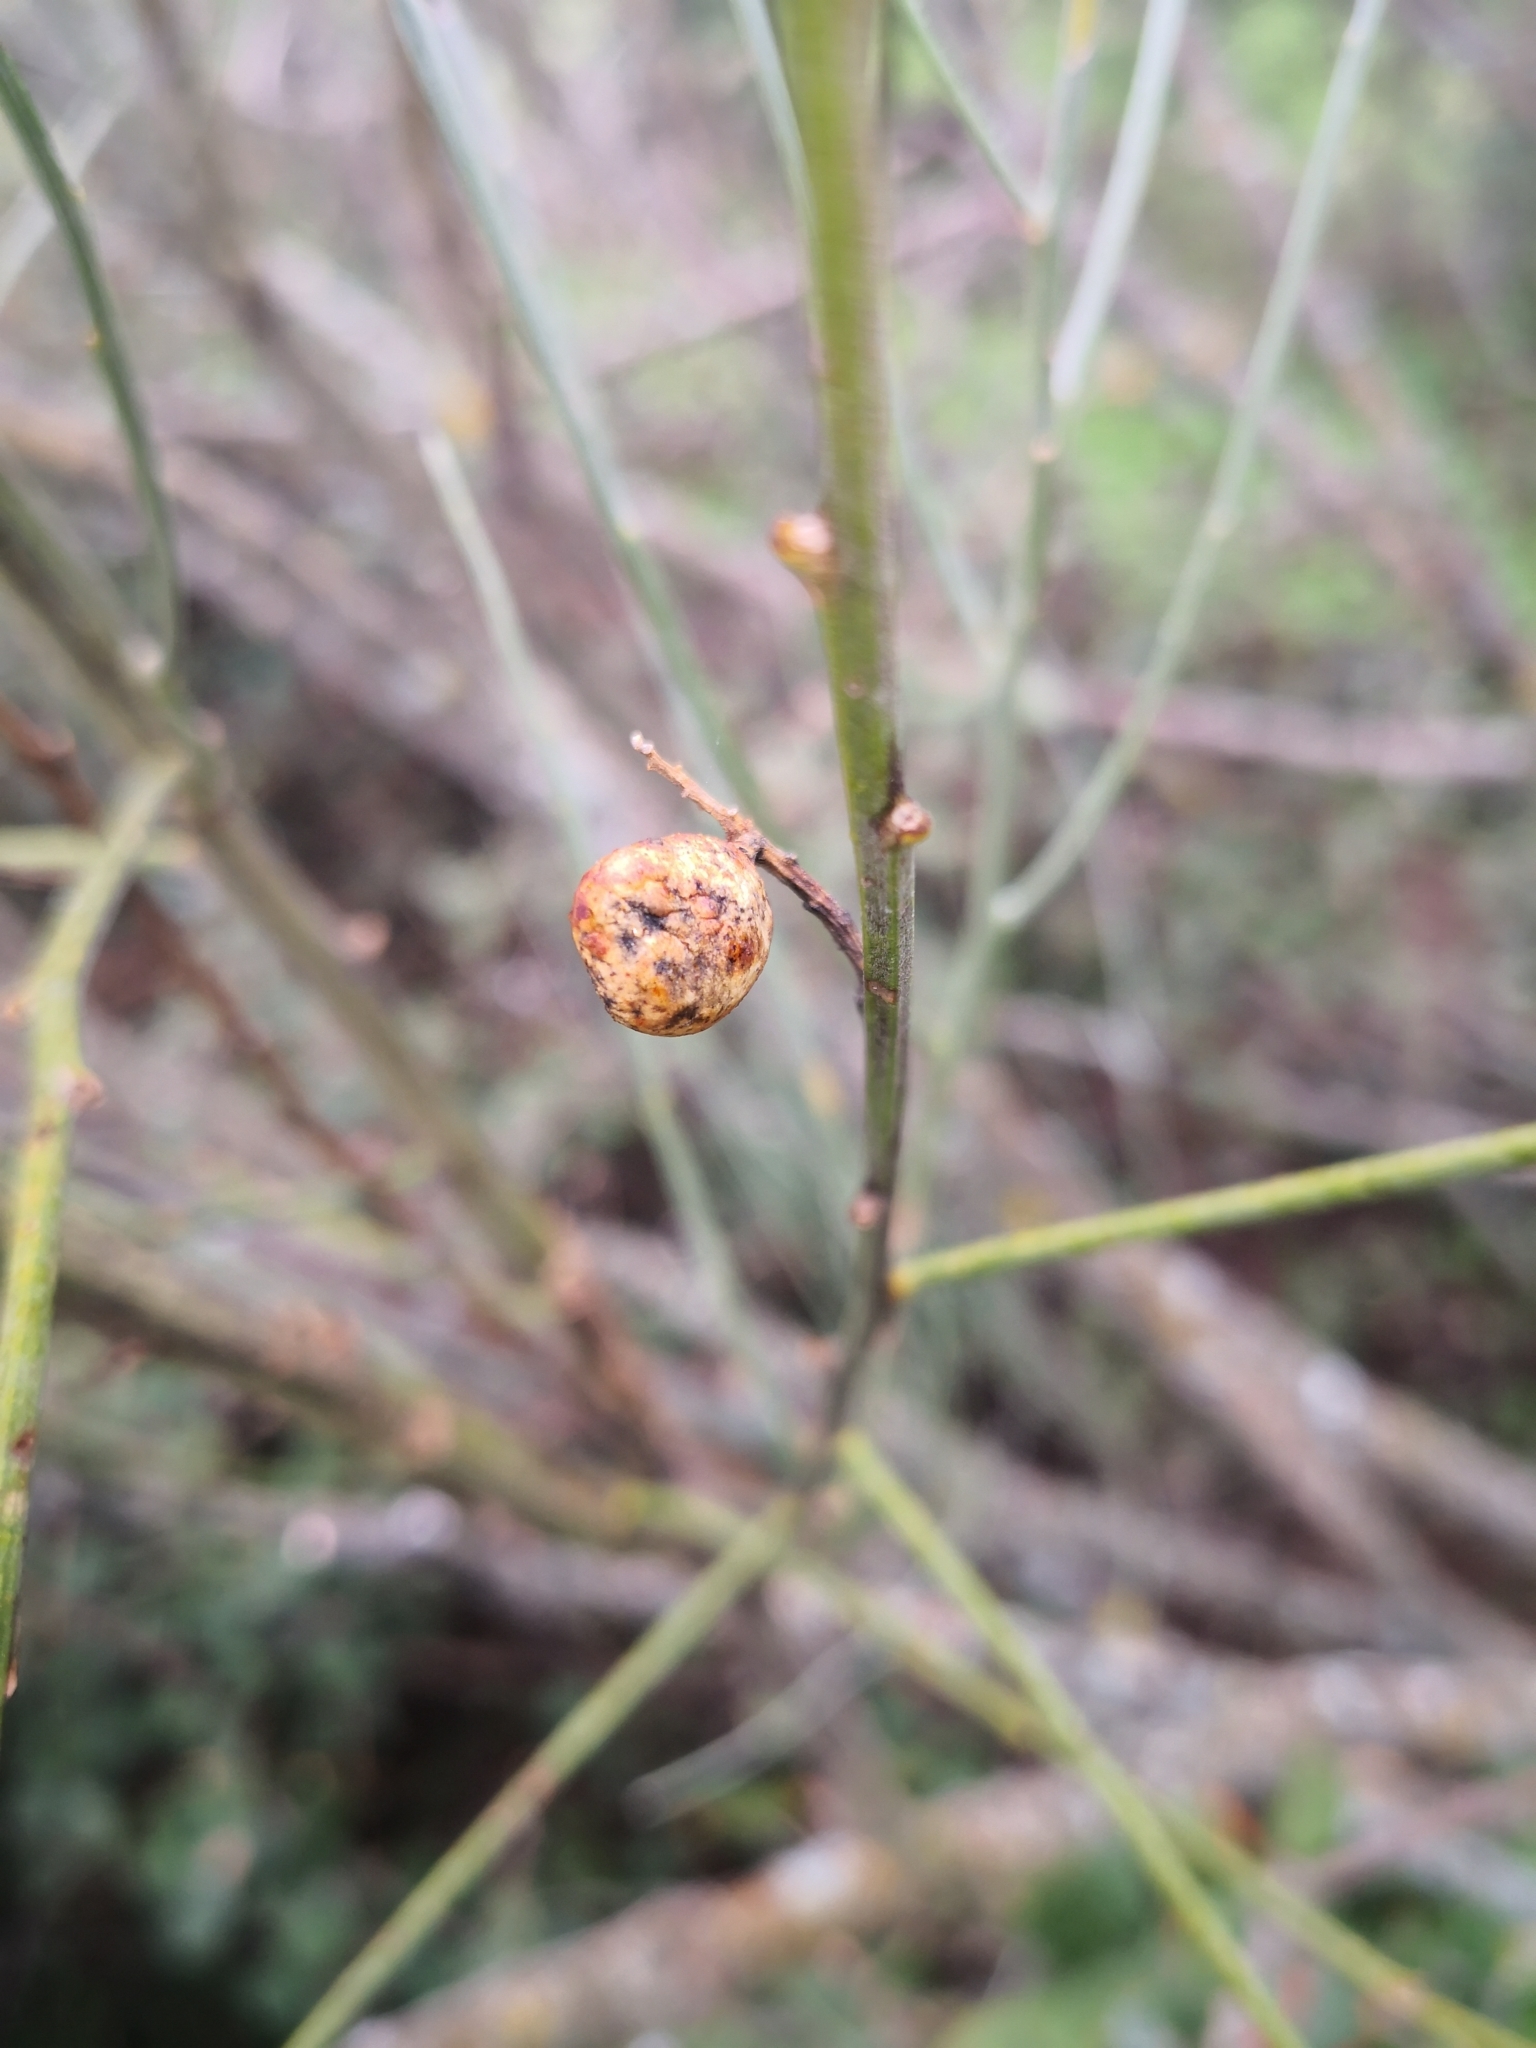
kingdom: Plantae
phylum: Tracheophyta
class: Magnoliopsida
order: Fabales
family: Fabaceae
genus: Retama
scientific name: Retama sphaerocarpa
